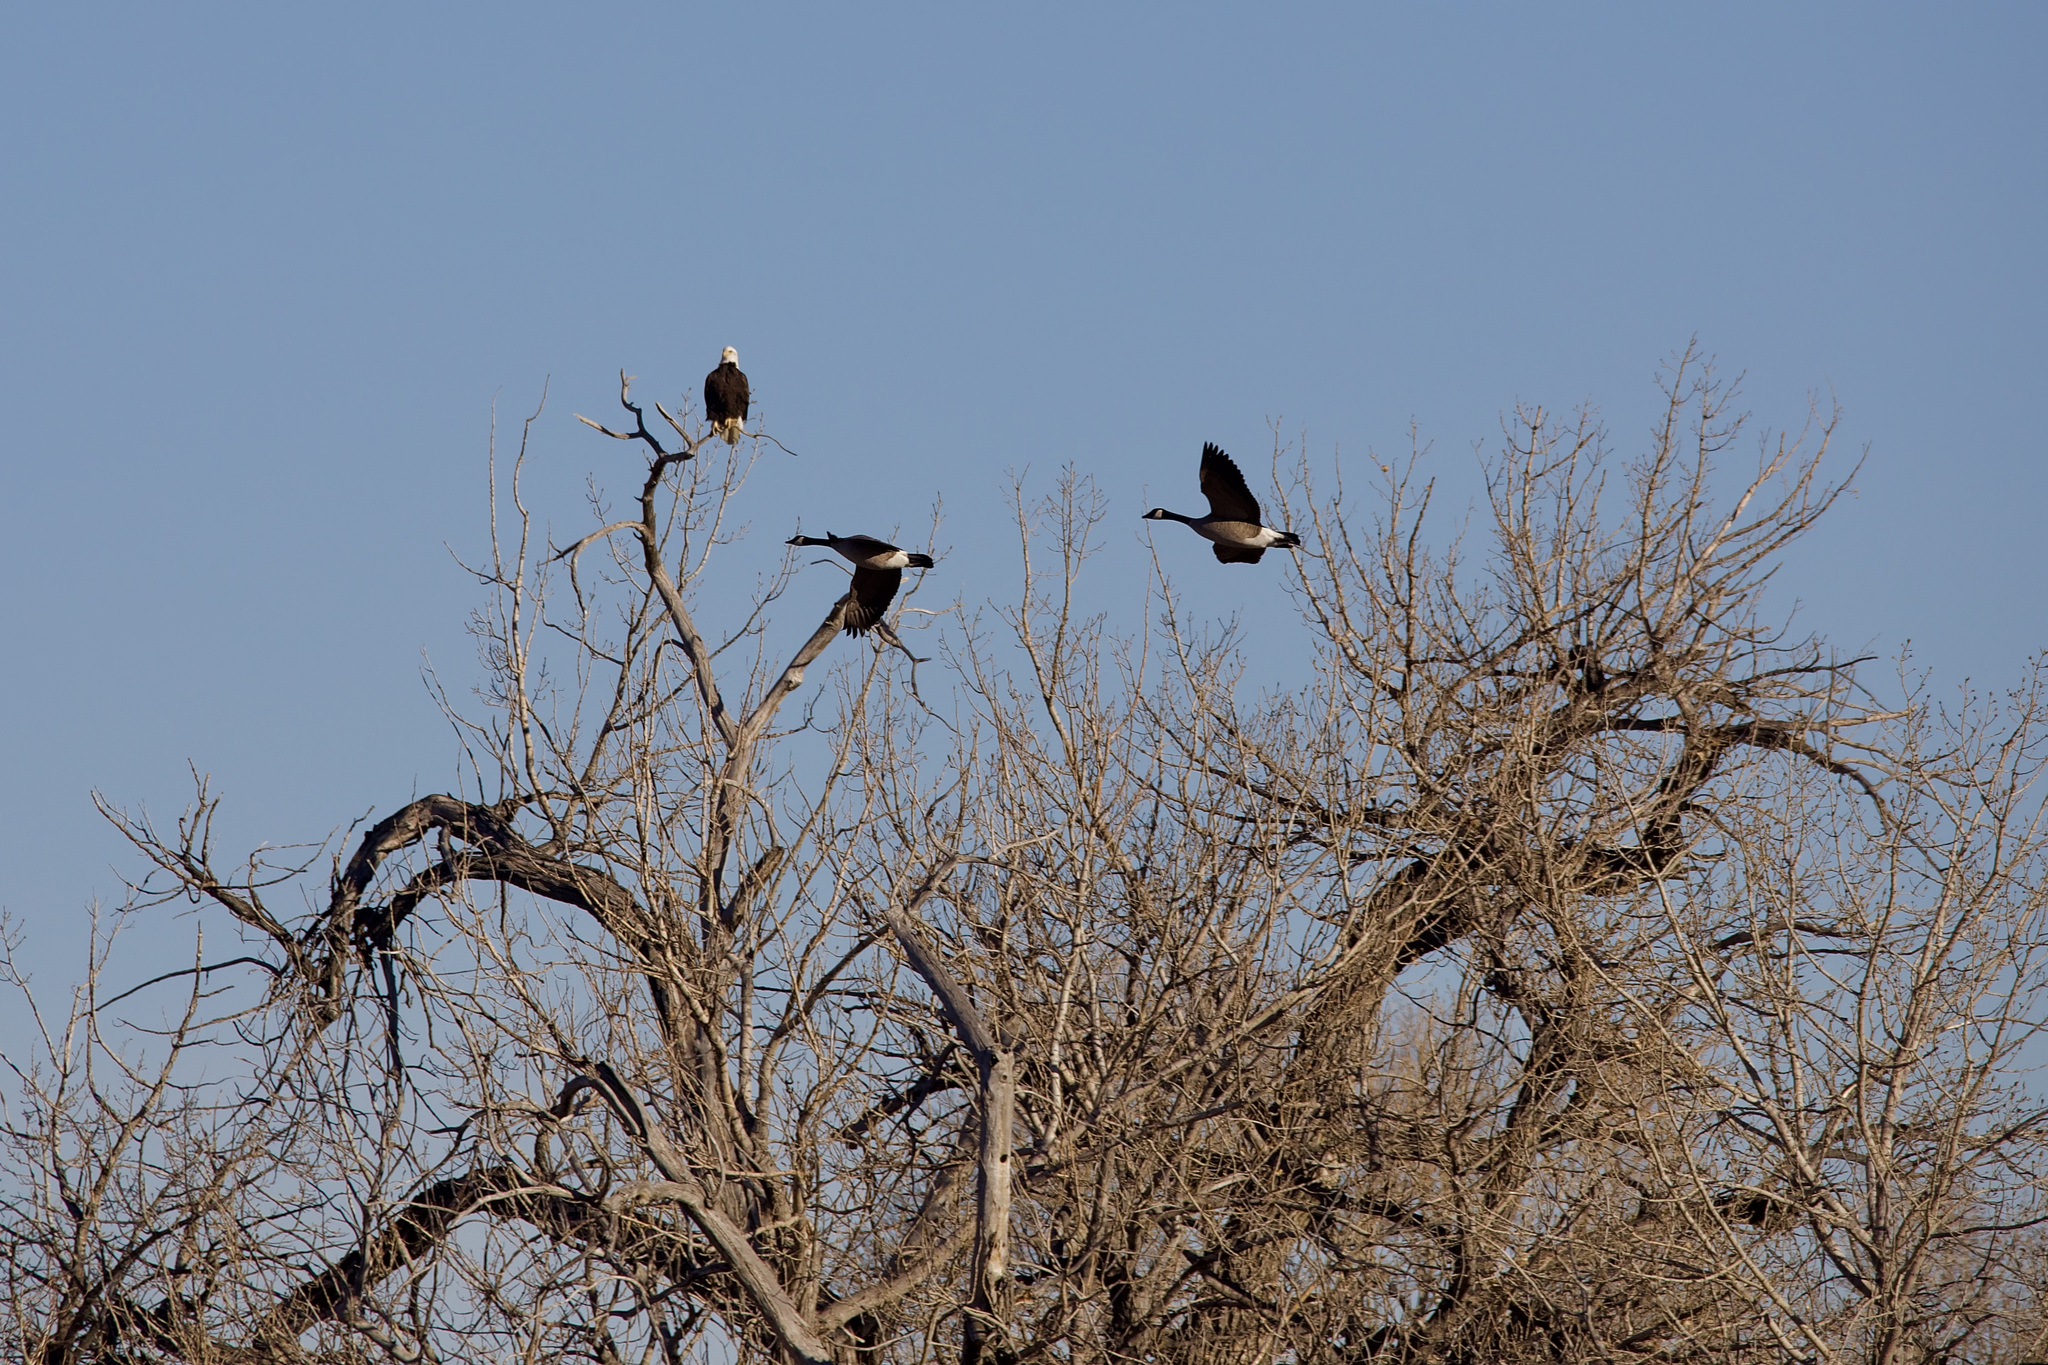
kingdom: Animalia
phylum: Chordata
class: Aves
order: Accipitriformes
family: Accipitridae
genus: Haliaeetus
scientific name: Haliaeetus leucocephalus
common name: Bald eagle
